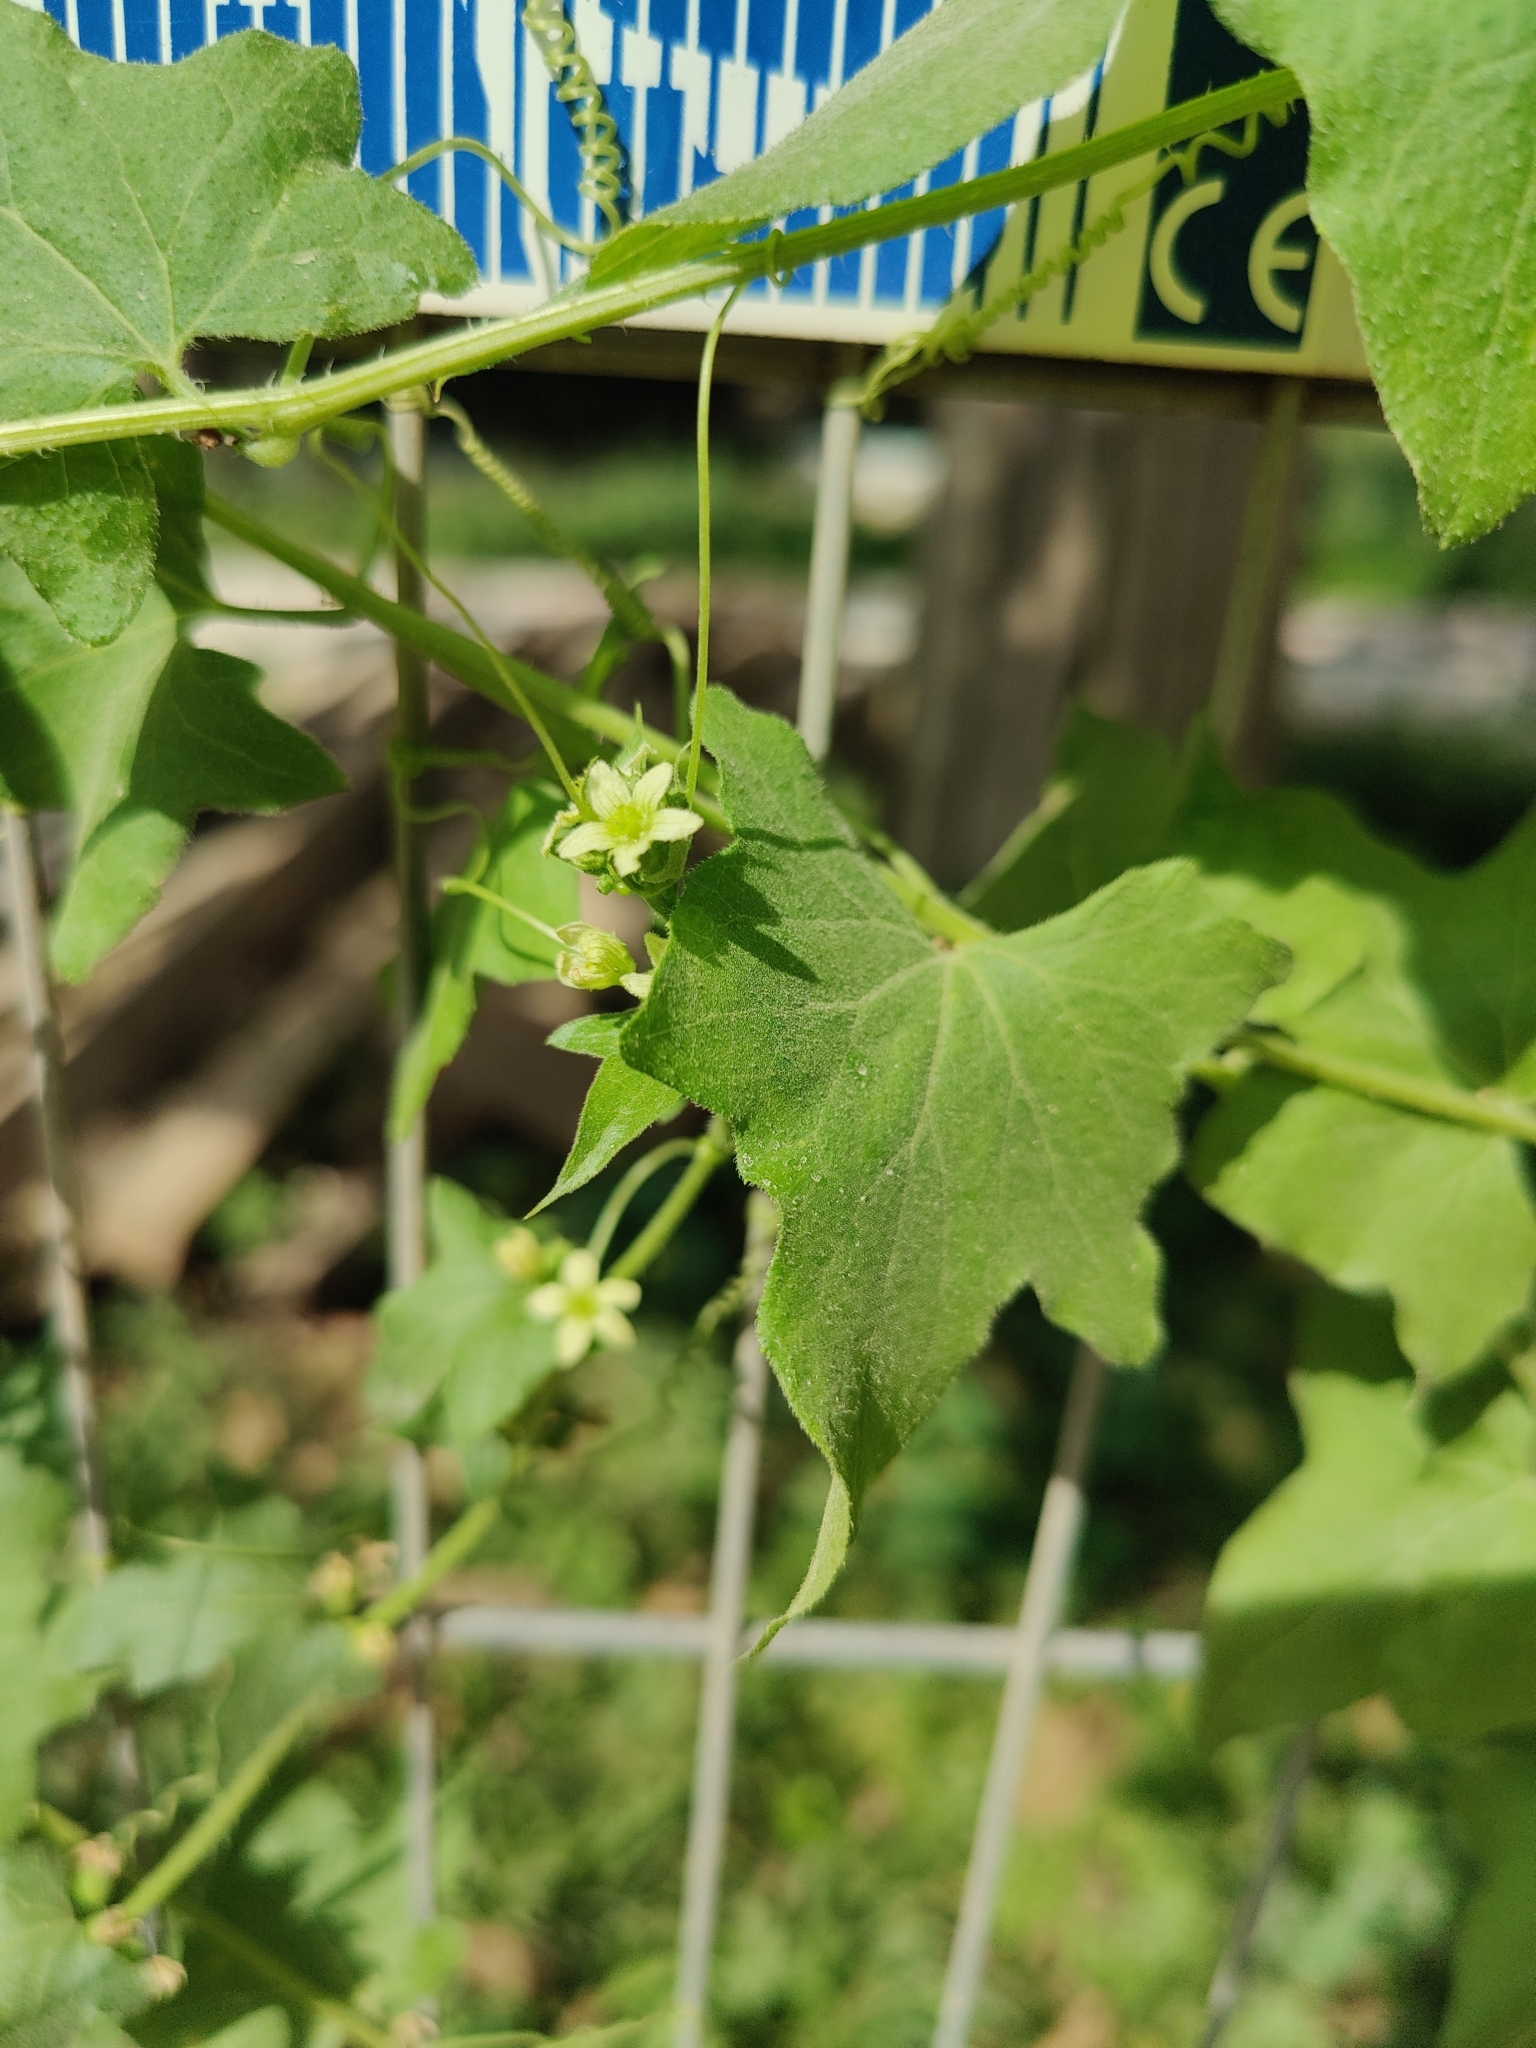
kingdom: Plantae
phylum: Tracheophyta
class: Magnoliopsida
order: Cucurbitales
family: Cucurbitaceae
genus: Bryonia
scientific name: Bryonia cretica
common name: Cretan bryony
